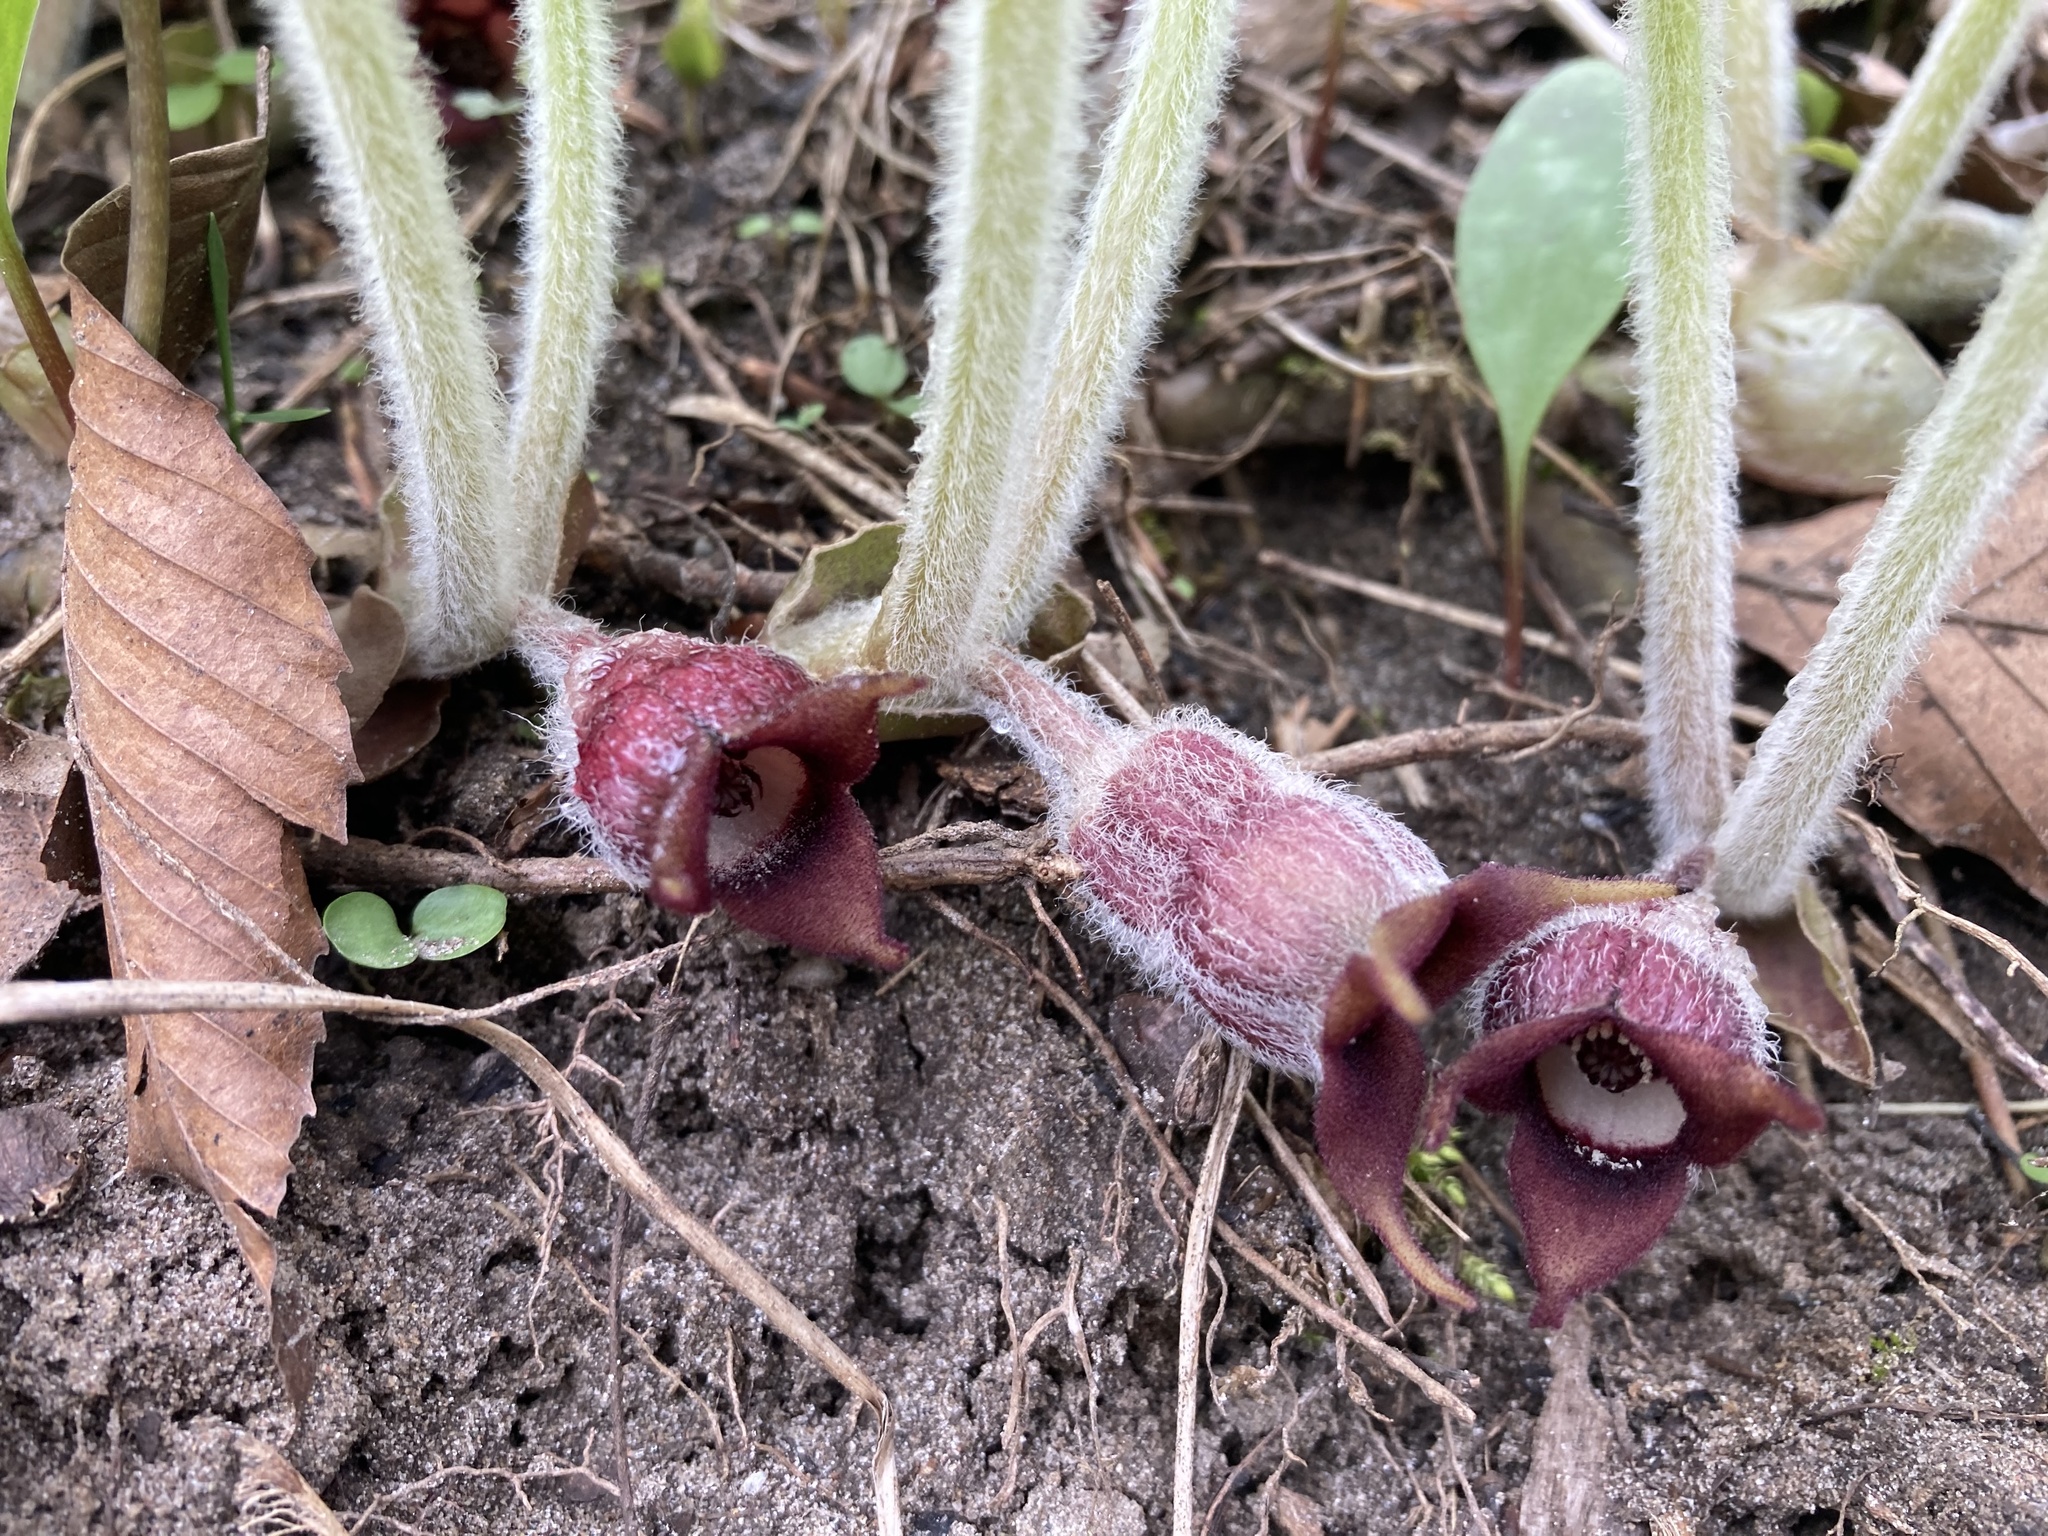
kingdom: Plantae
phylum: Tracheophyta
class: Magnoliopsida
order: Piperales
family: Aristolochiaceae
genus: Asarum
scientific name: Asarum canadense
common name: Wild ginger
